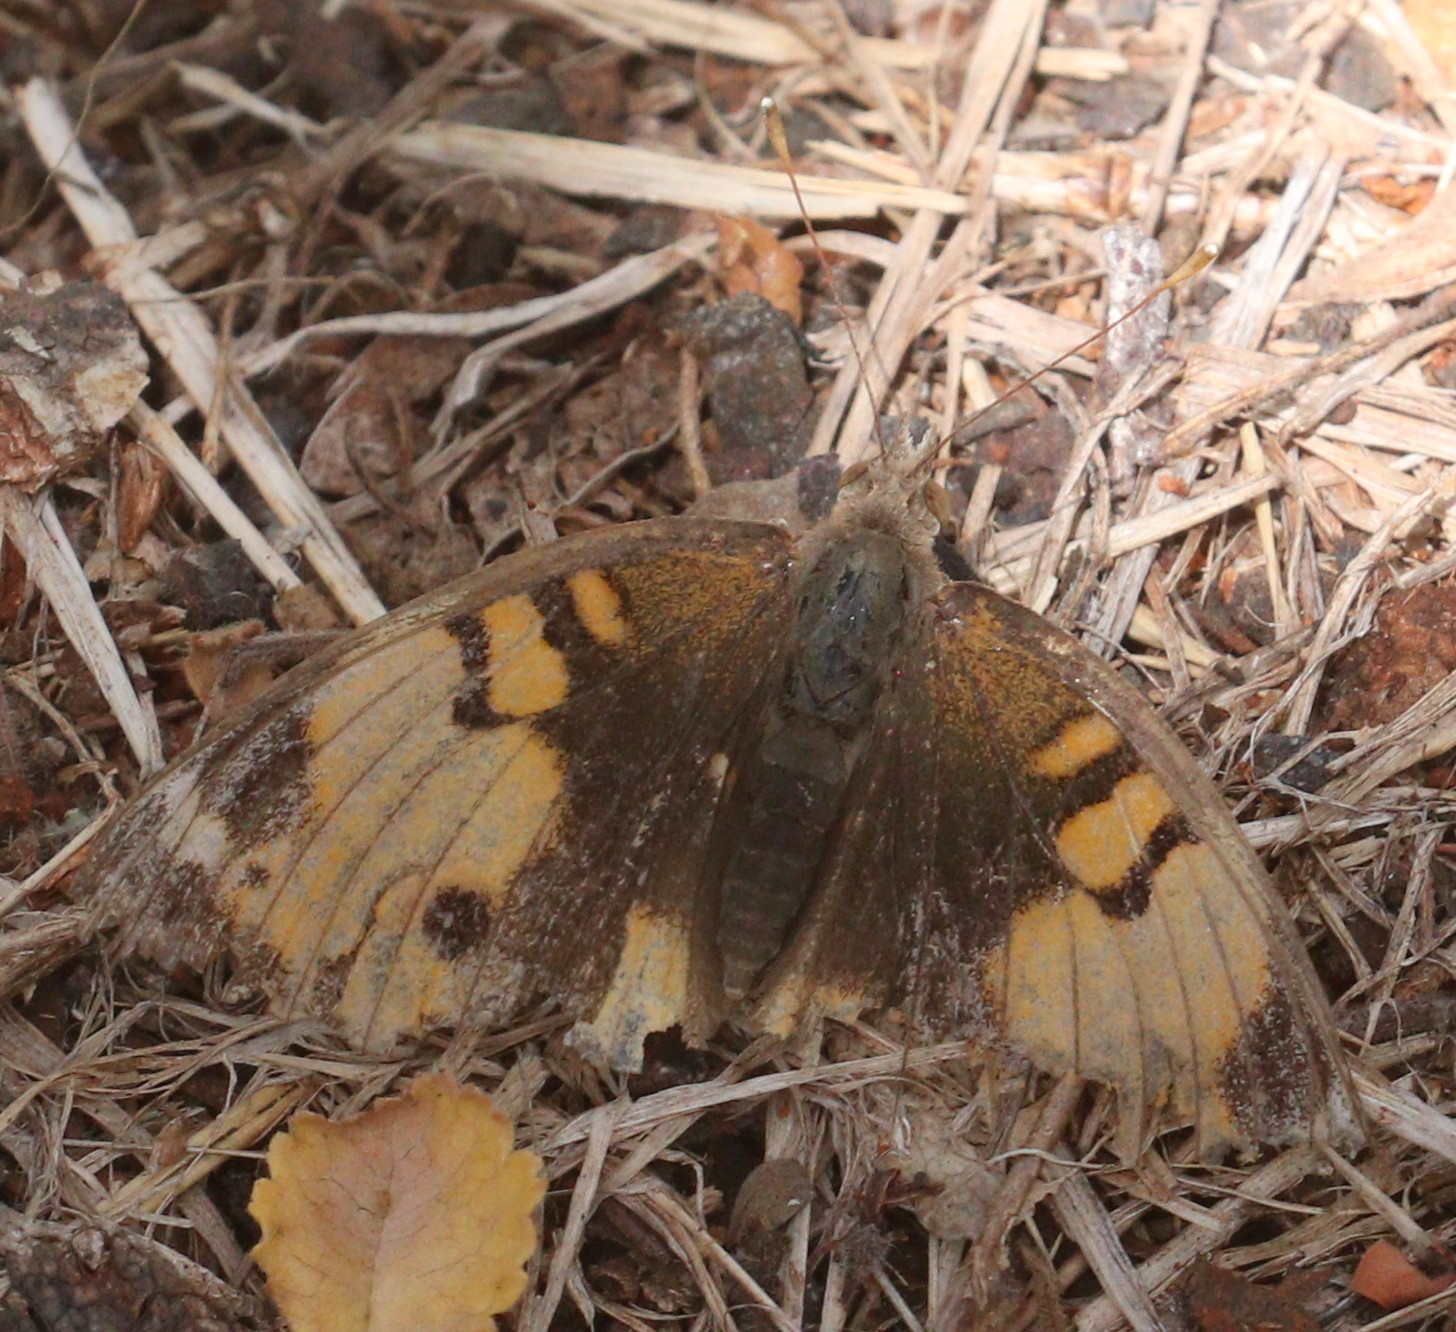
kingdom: Animalia
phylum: Arthropoda
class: Insecta
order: Lepidoptera
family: Nymphalidae
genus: Junonia
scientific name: Junonia hierta
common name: Yellow pansy
